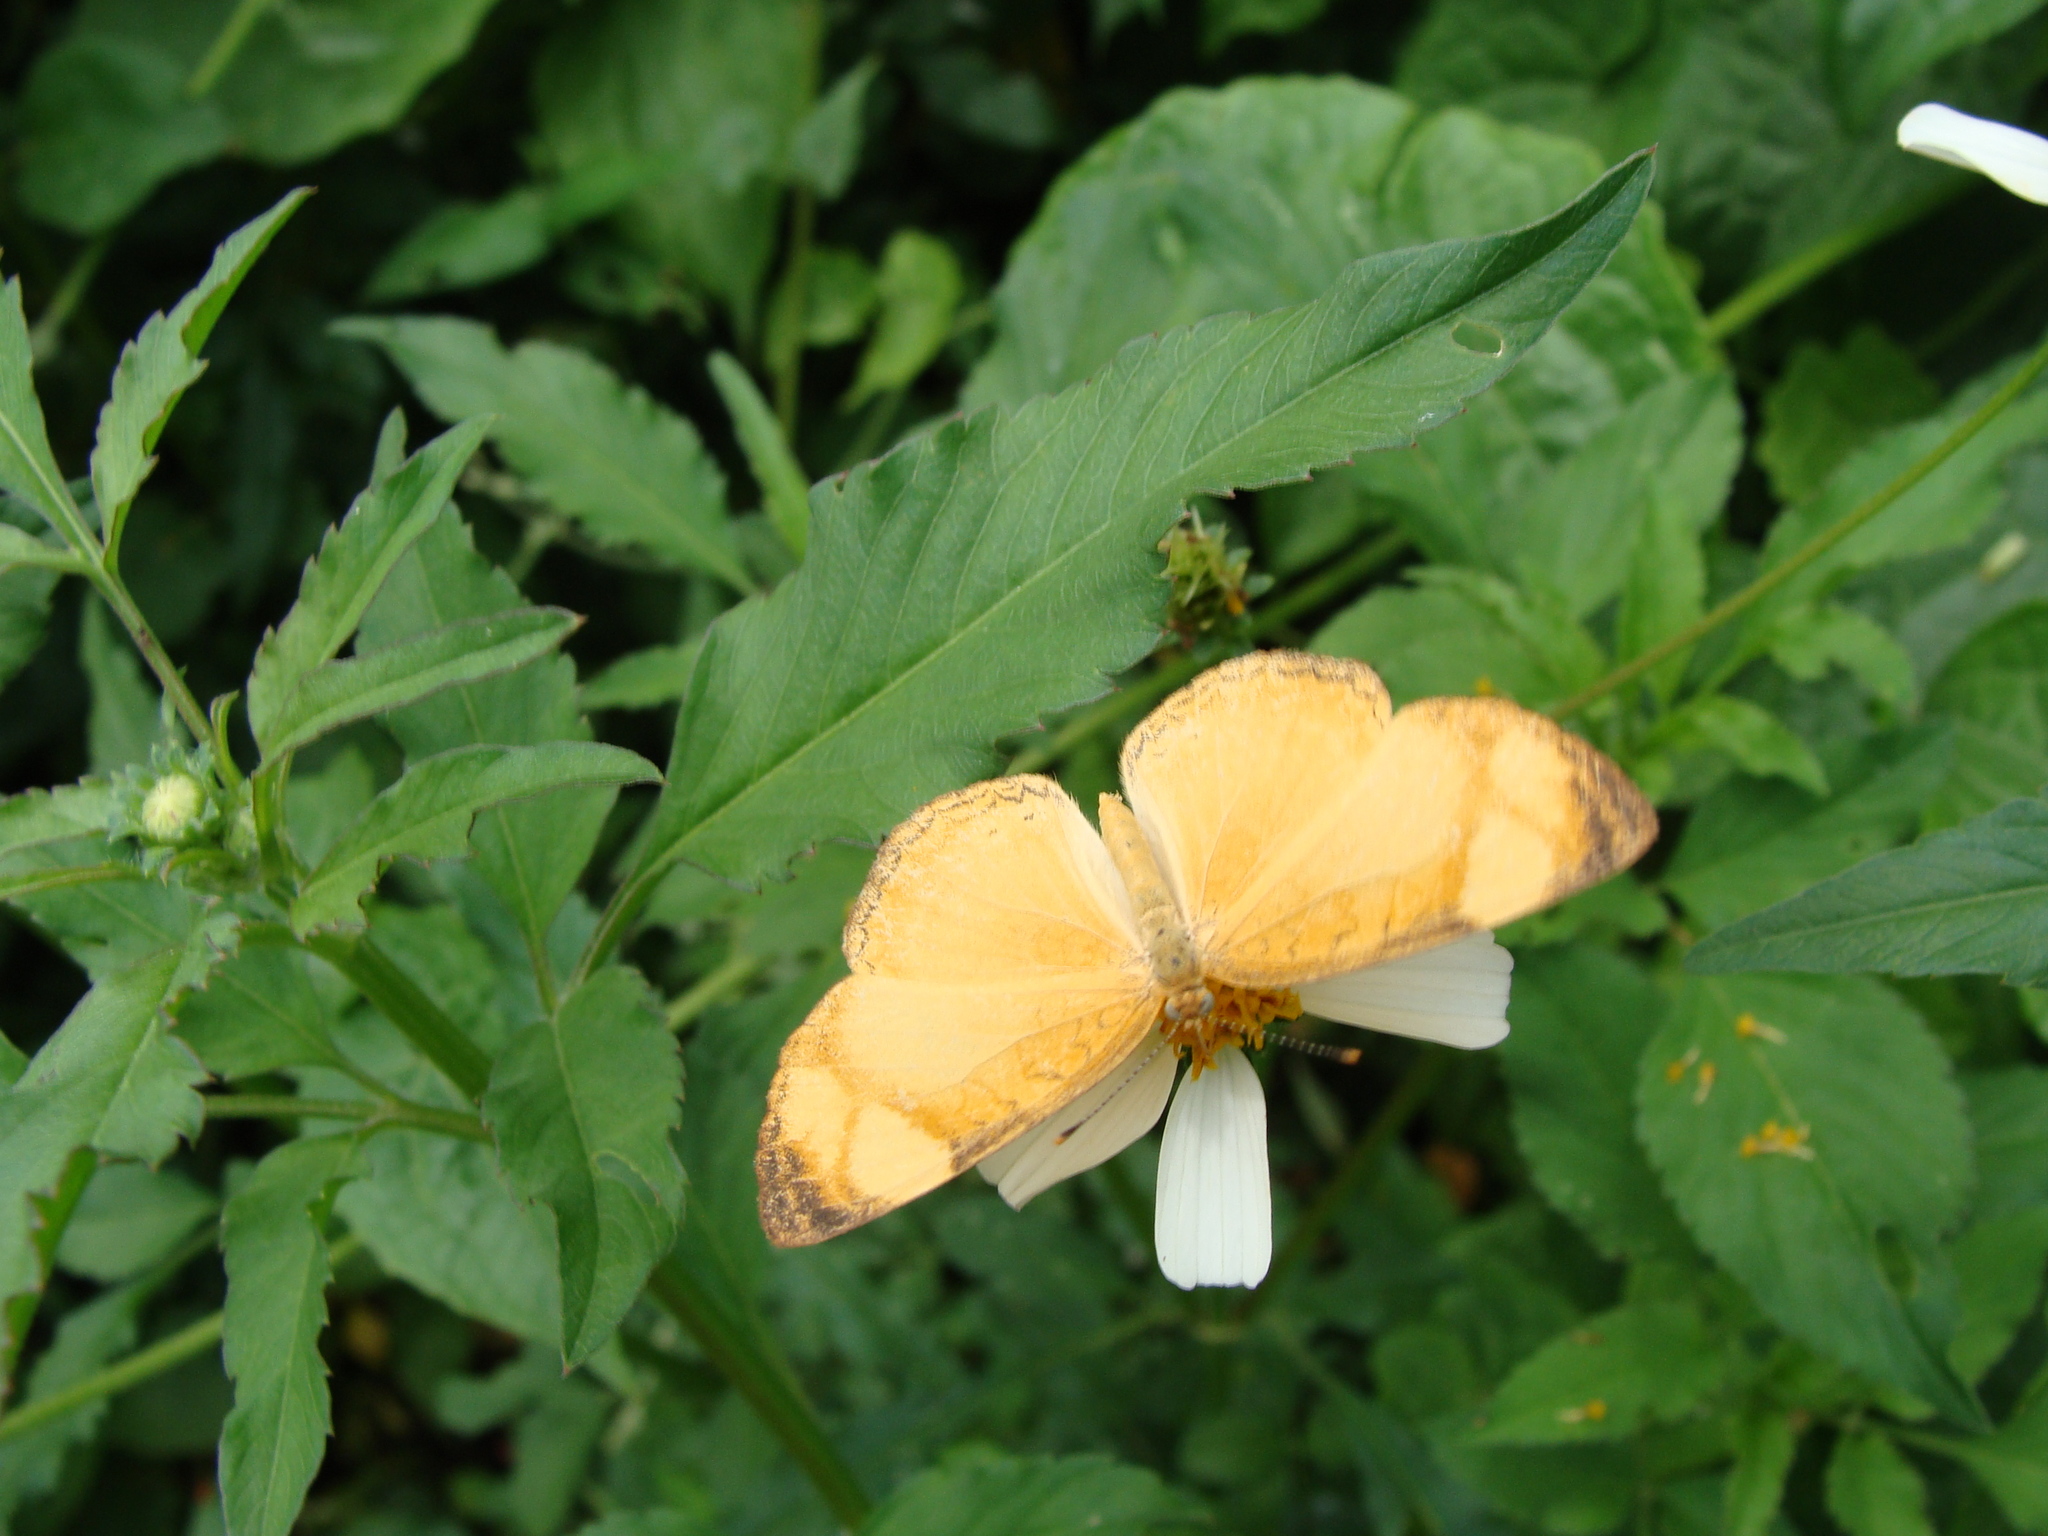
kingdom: Animalia
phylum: Arthropoda
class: Insecta
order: Lepidoptera
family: Nymphalidae
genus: Tegosa
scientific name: Tegosa guatemalena
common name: Guatemalan crescent
